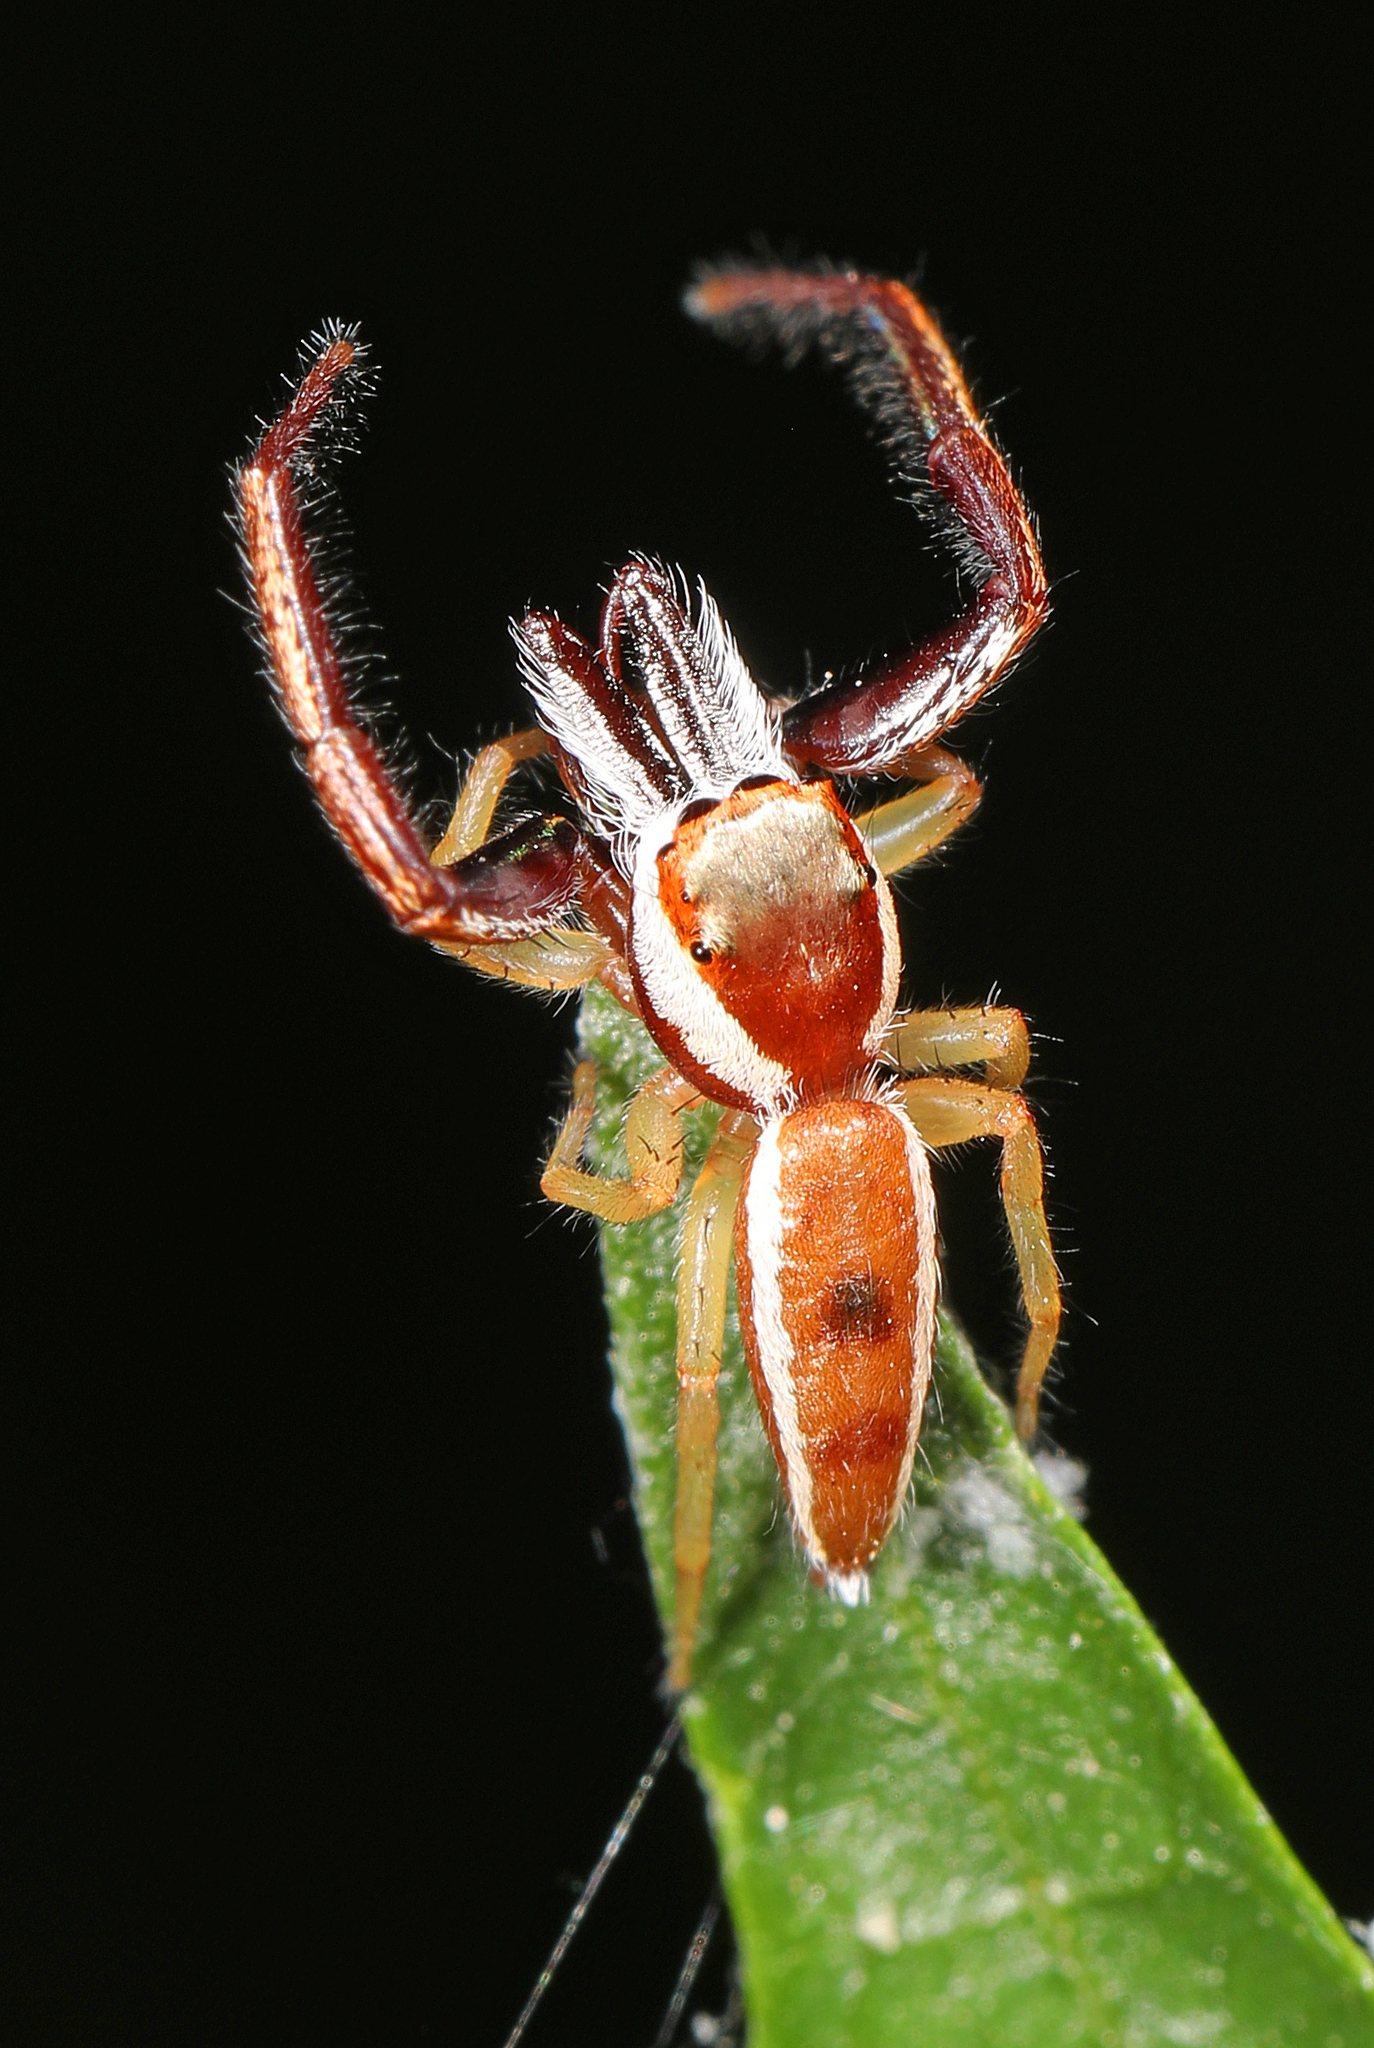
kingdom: Animalia
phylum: Arthropoda
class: Arachnida
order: Araneae
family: Salticidae
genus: Hentzia
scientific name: Hentzia palmarum
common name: Common hentz jumping spider
